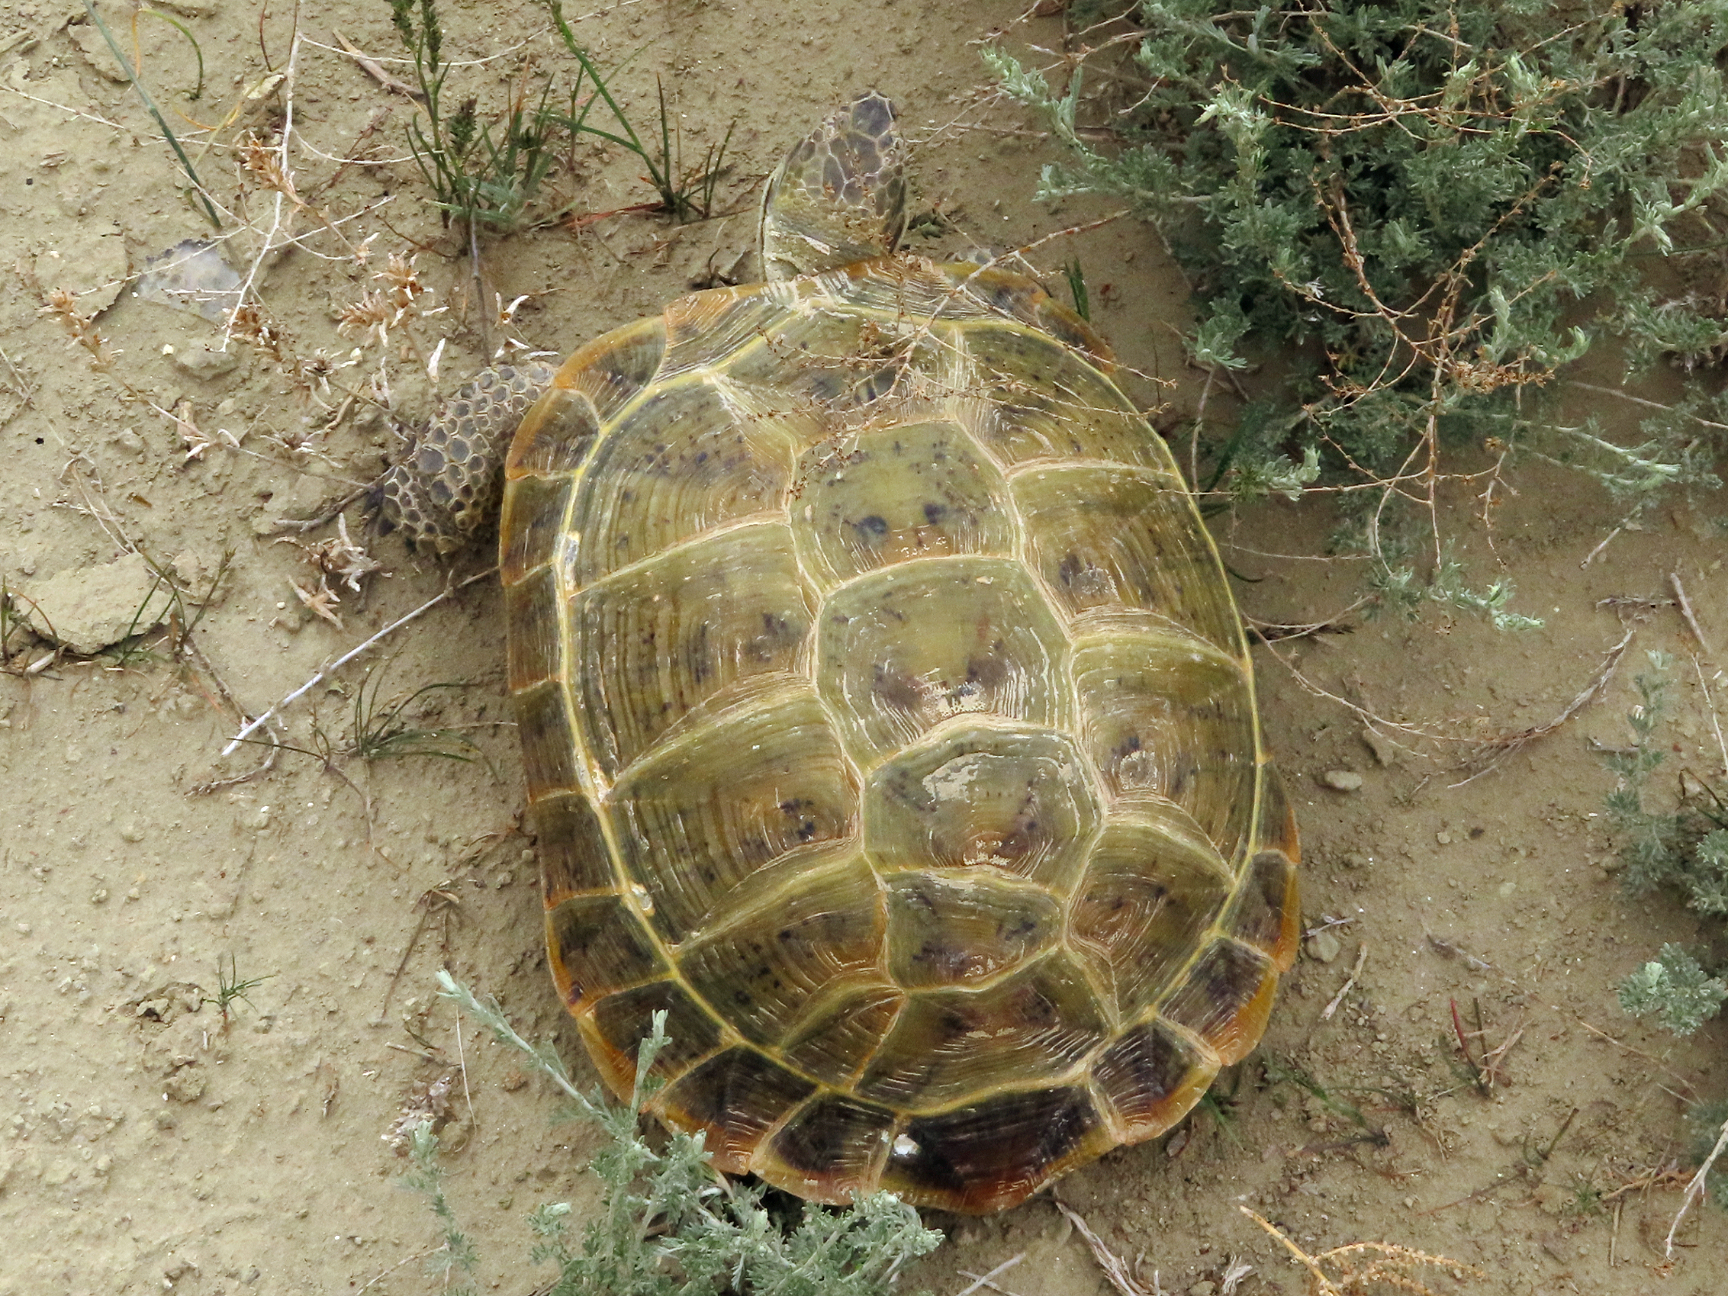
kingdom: Animalia
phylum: Chordata
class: Testudines
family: Testudinidae
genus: Testudo
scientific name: Testudo horsfieldii
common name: Central asia tortoise
